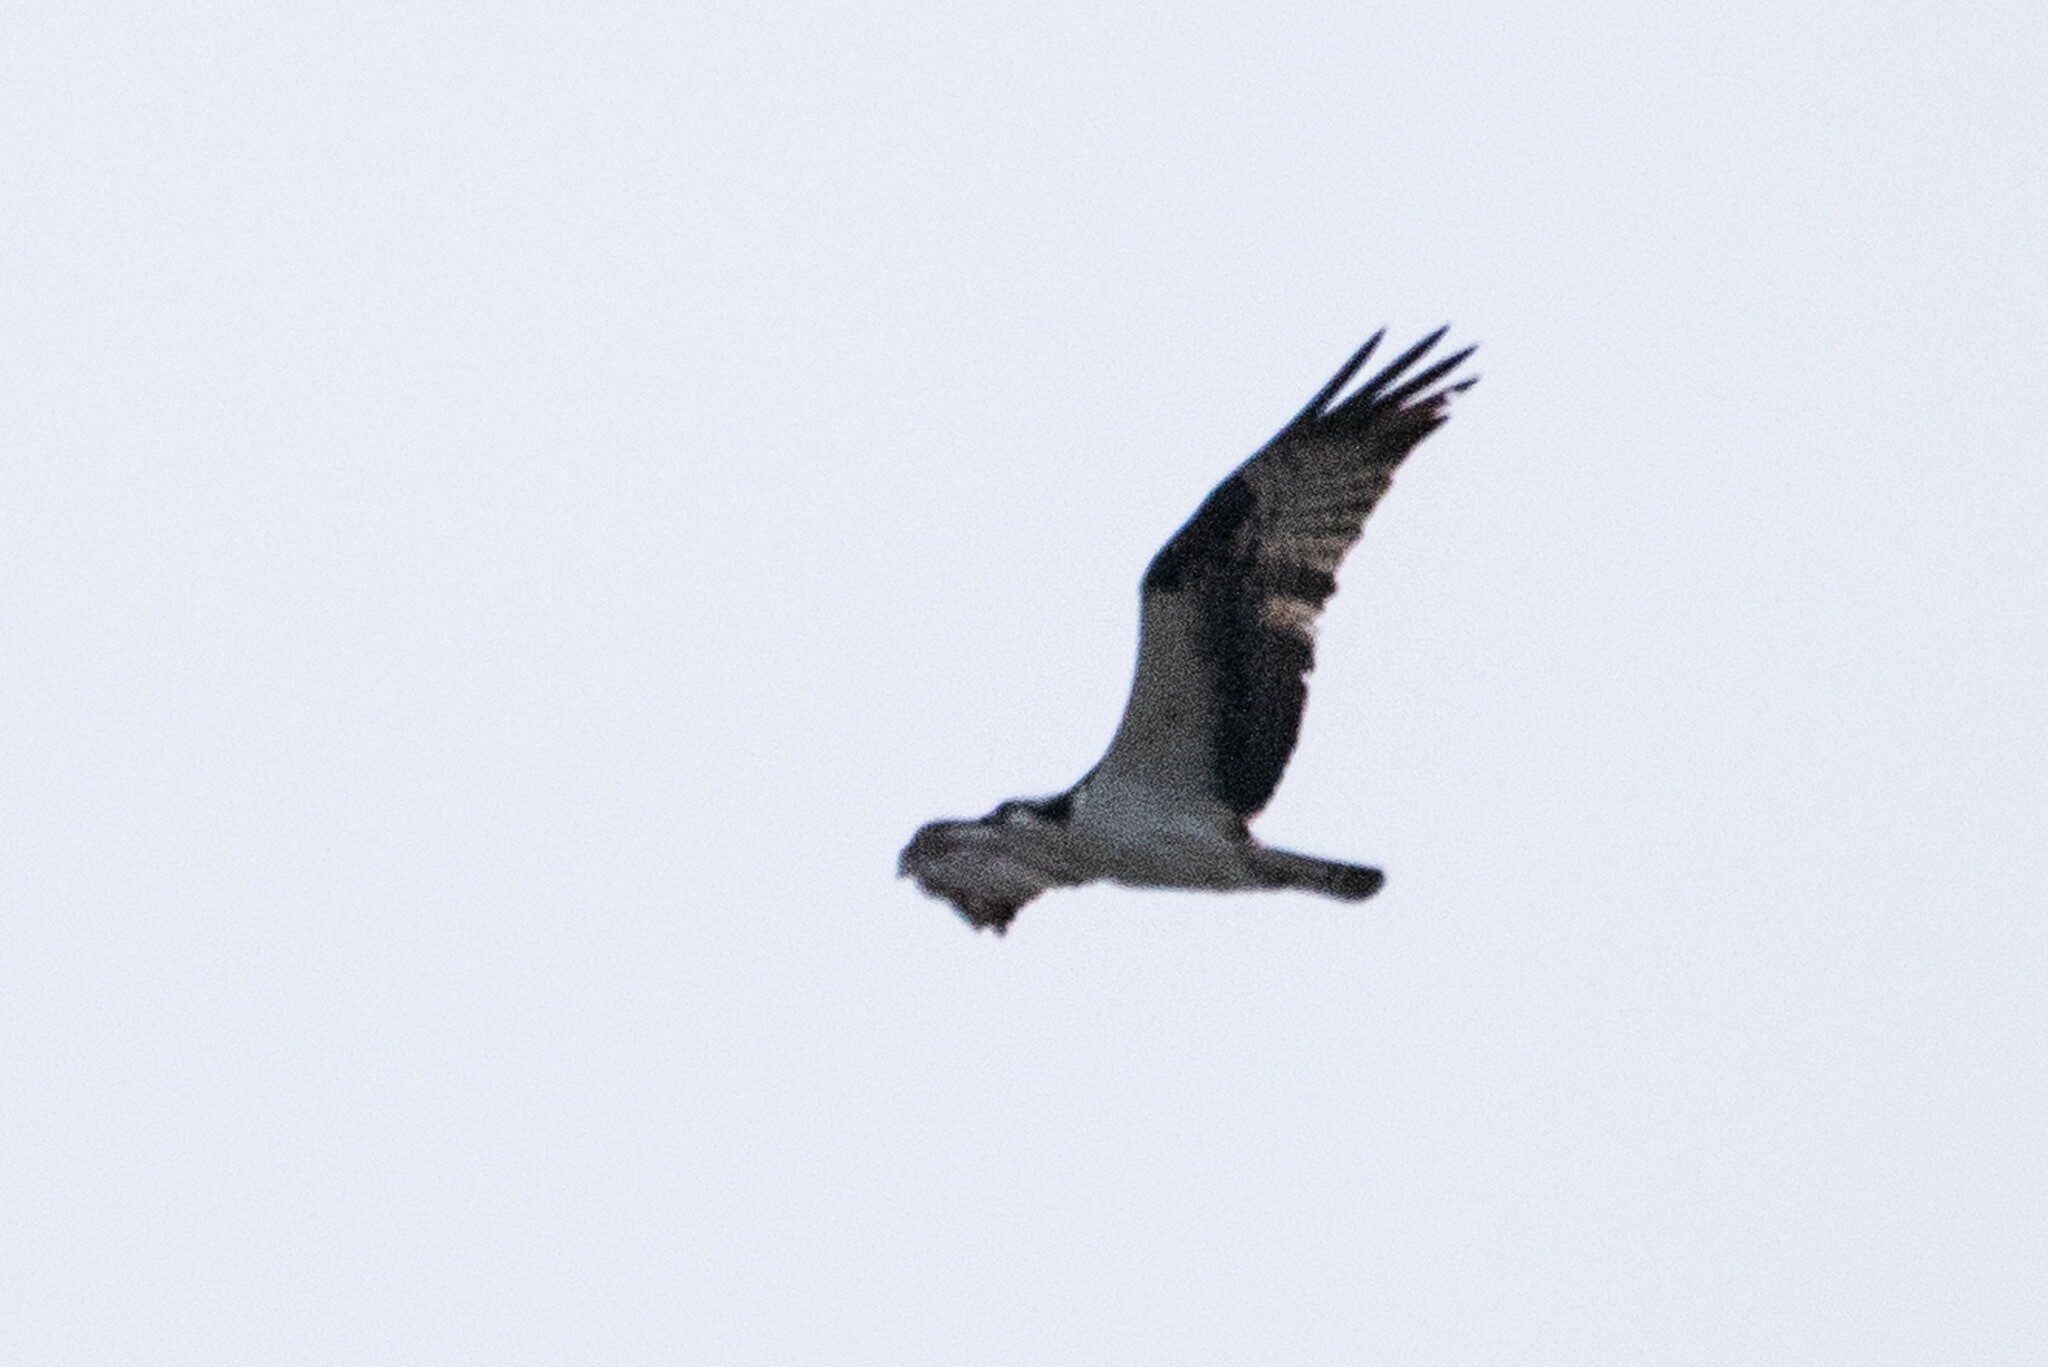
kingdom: Animalia
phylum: Chordata
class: Aves
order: Accipitriformes
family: Pandionidae
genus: Pandion
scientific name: Pandion haliaetus
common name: Osprey
